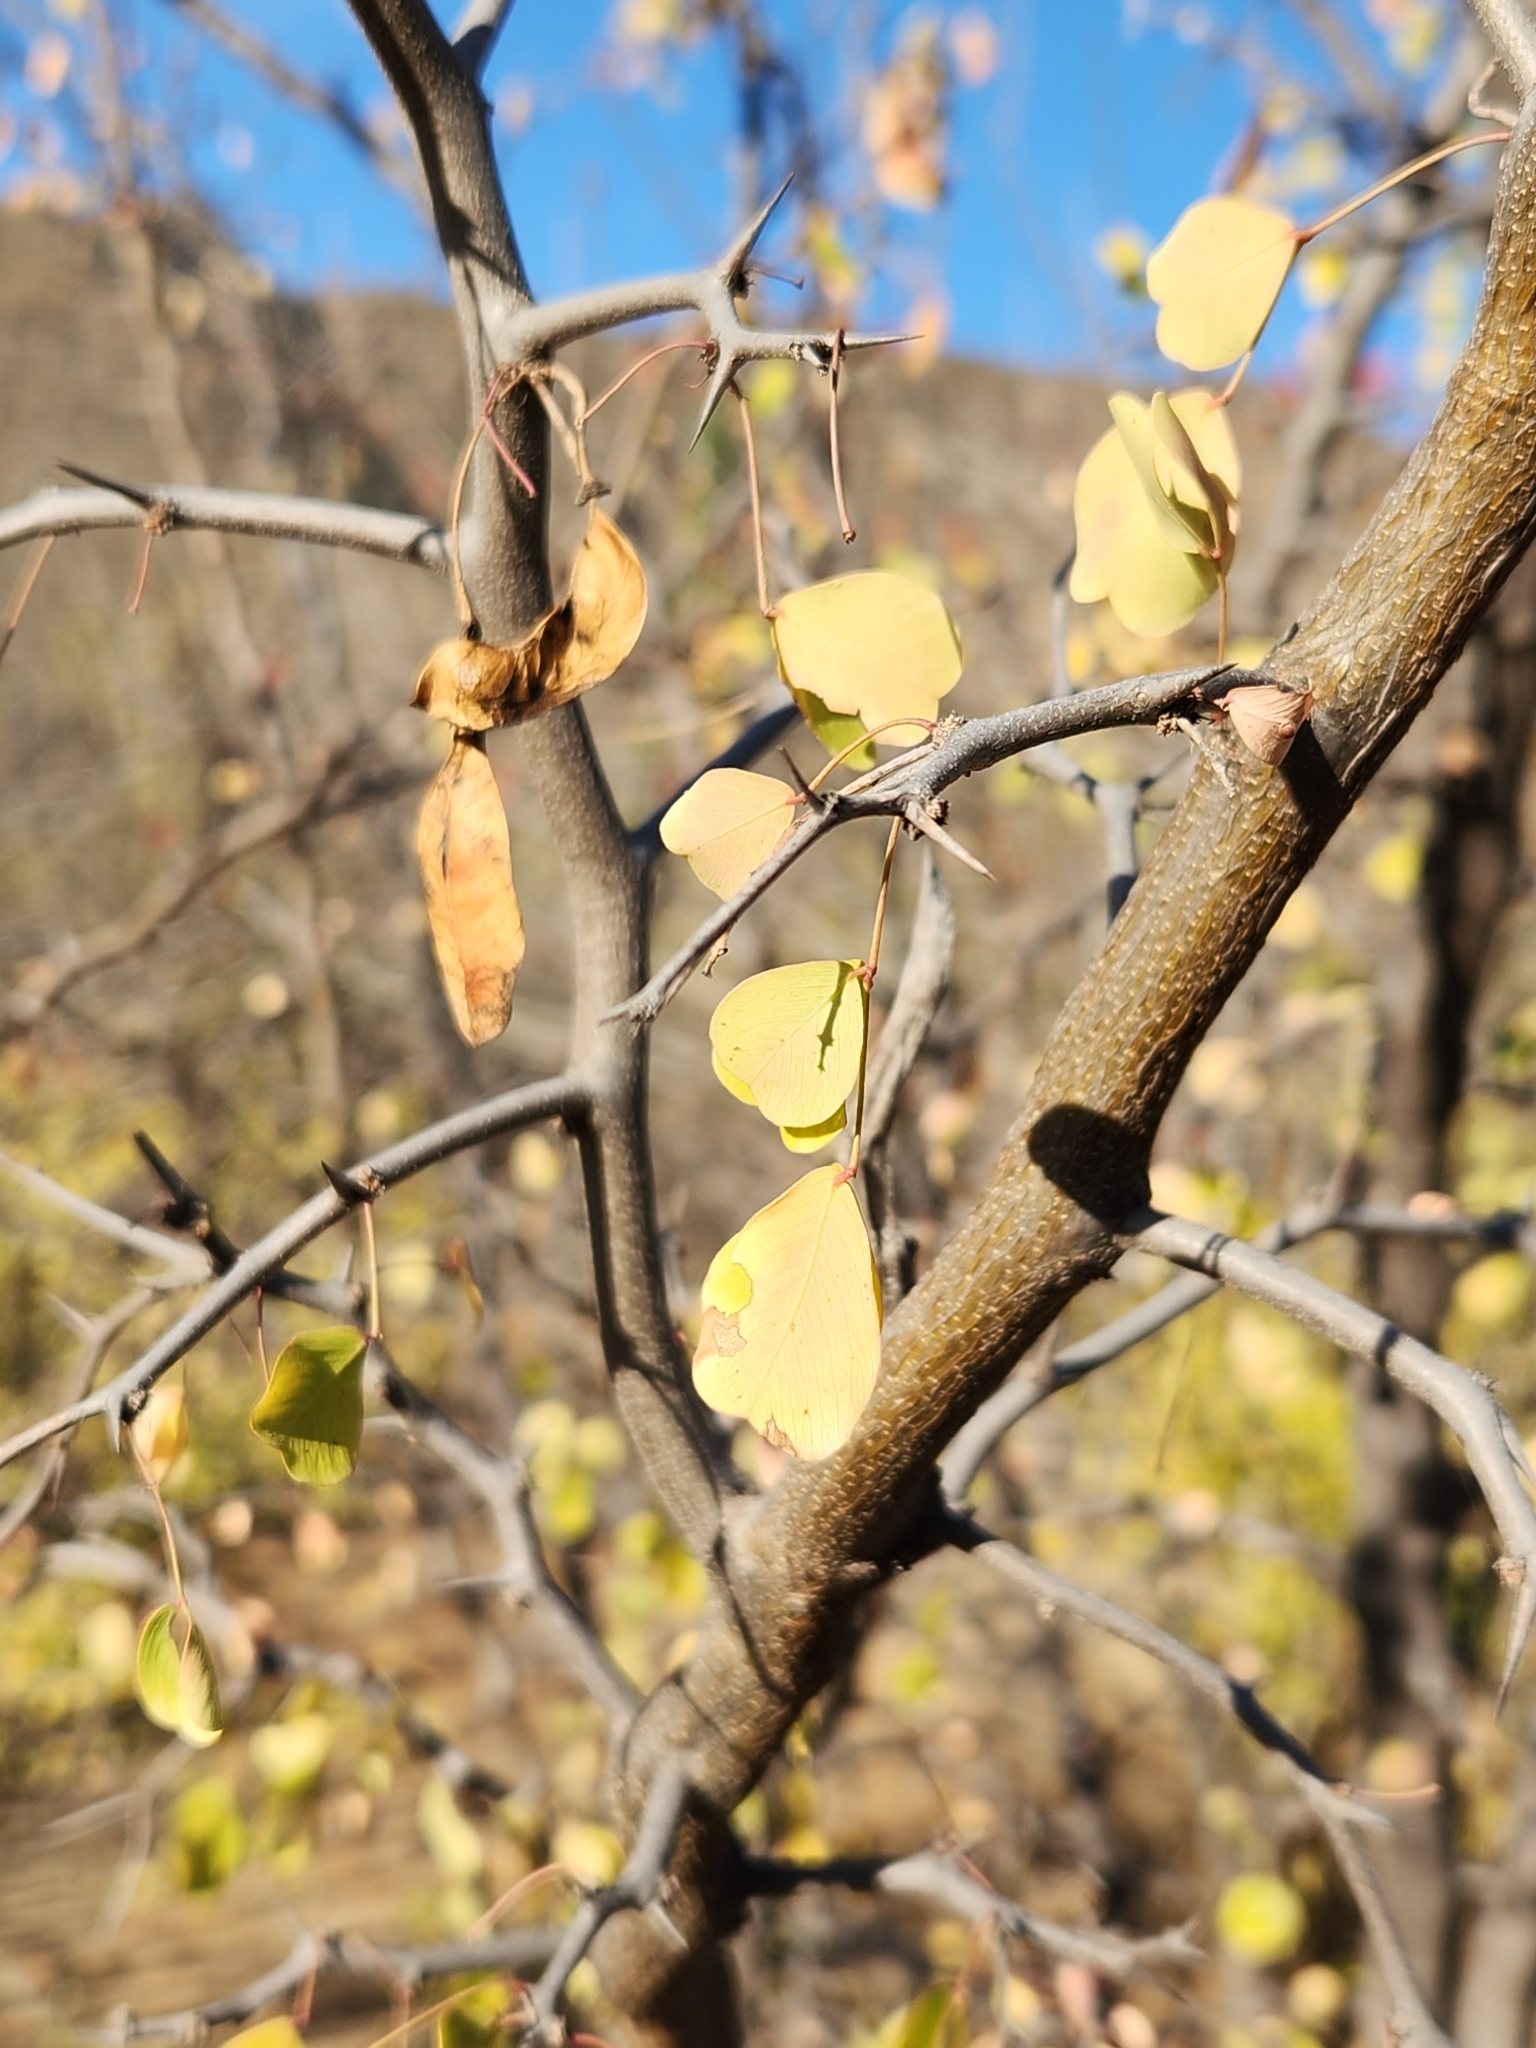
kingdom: Plantae
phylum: Tracheophyta
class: Magnoliopsida
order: Fabales
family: Fabaceae
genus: Haematoxylum
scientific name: Haematoxylum brasiletto
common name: Peachwood
